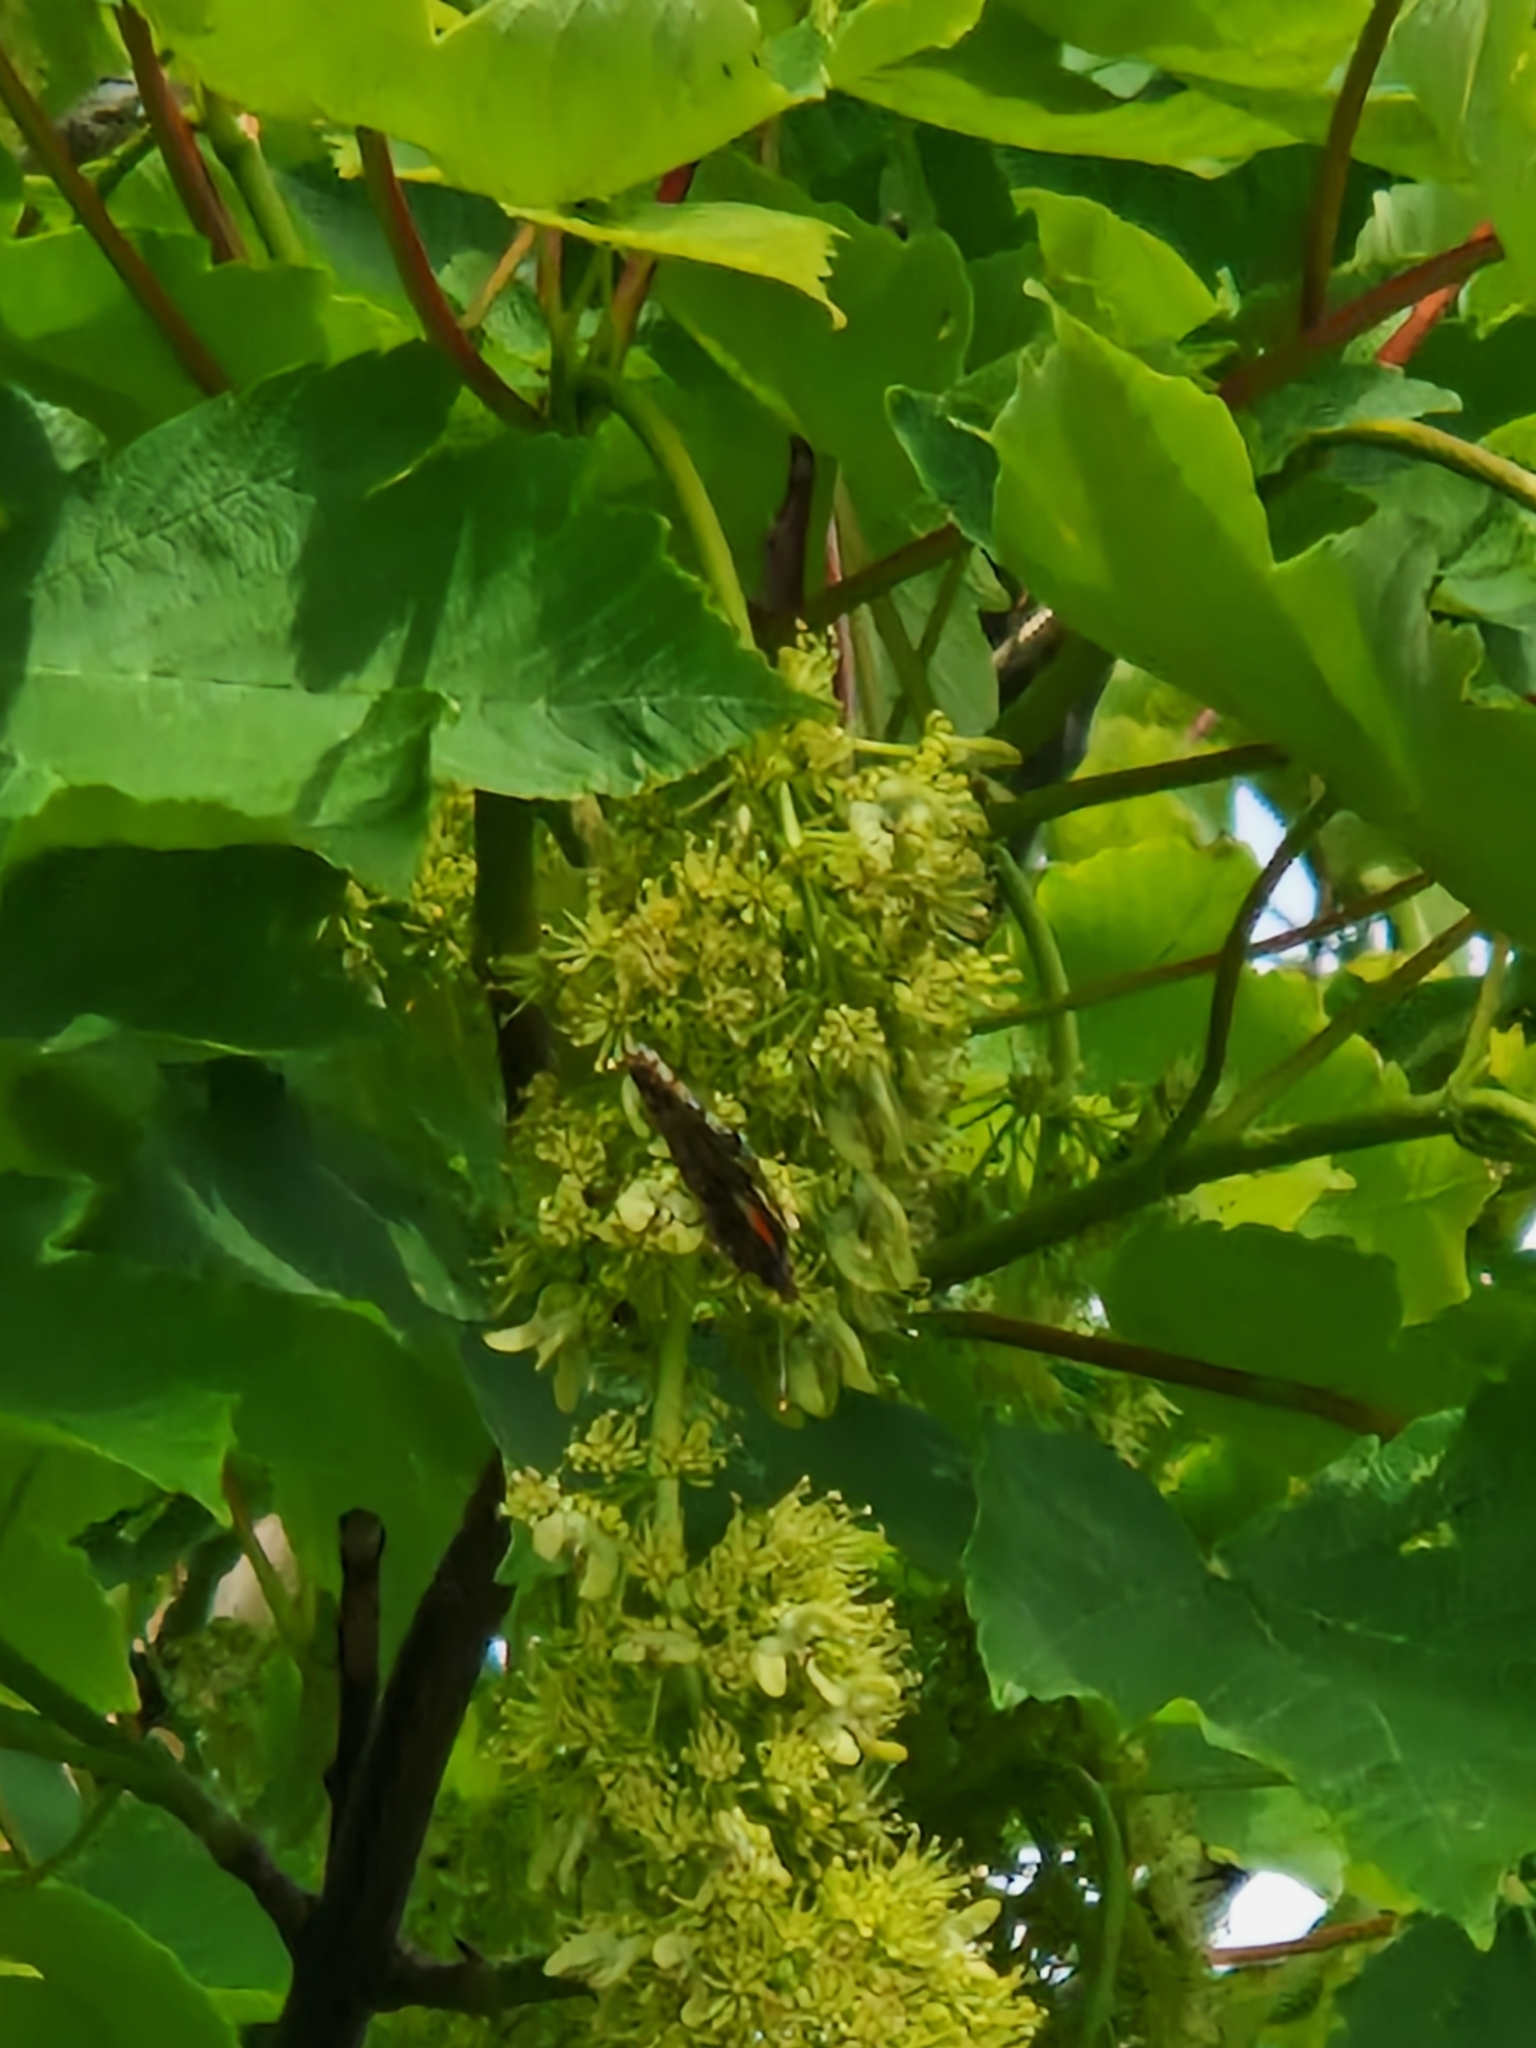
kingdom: Animalia
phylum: Arthropoda
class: Insecta
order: Lepidoptera
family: Nymphalidae
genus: Vanessa
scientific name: Vanessa atalanta
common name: Red admiral
